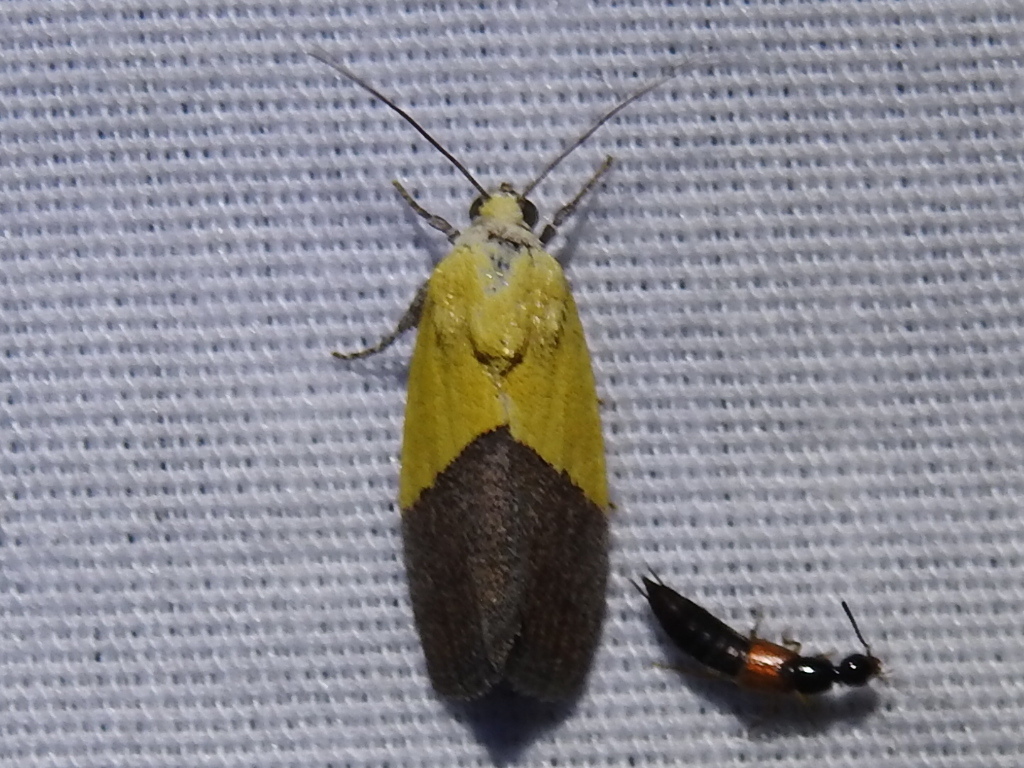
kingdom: Animalia
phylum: Arthropoda
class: Insecta
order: Lepidoptera
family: Noctuidae
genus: Acontia
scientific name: Acontia semiflava
